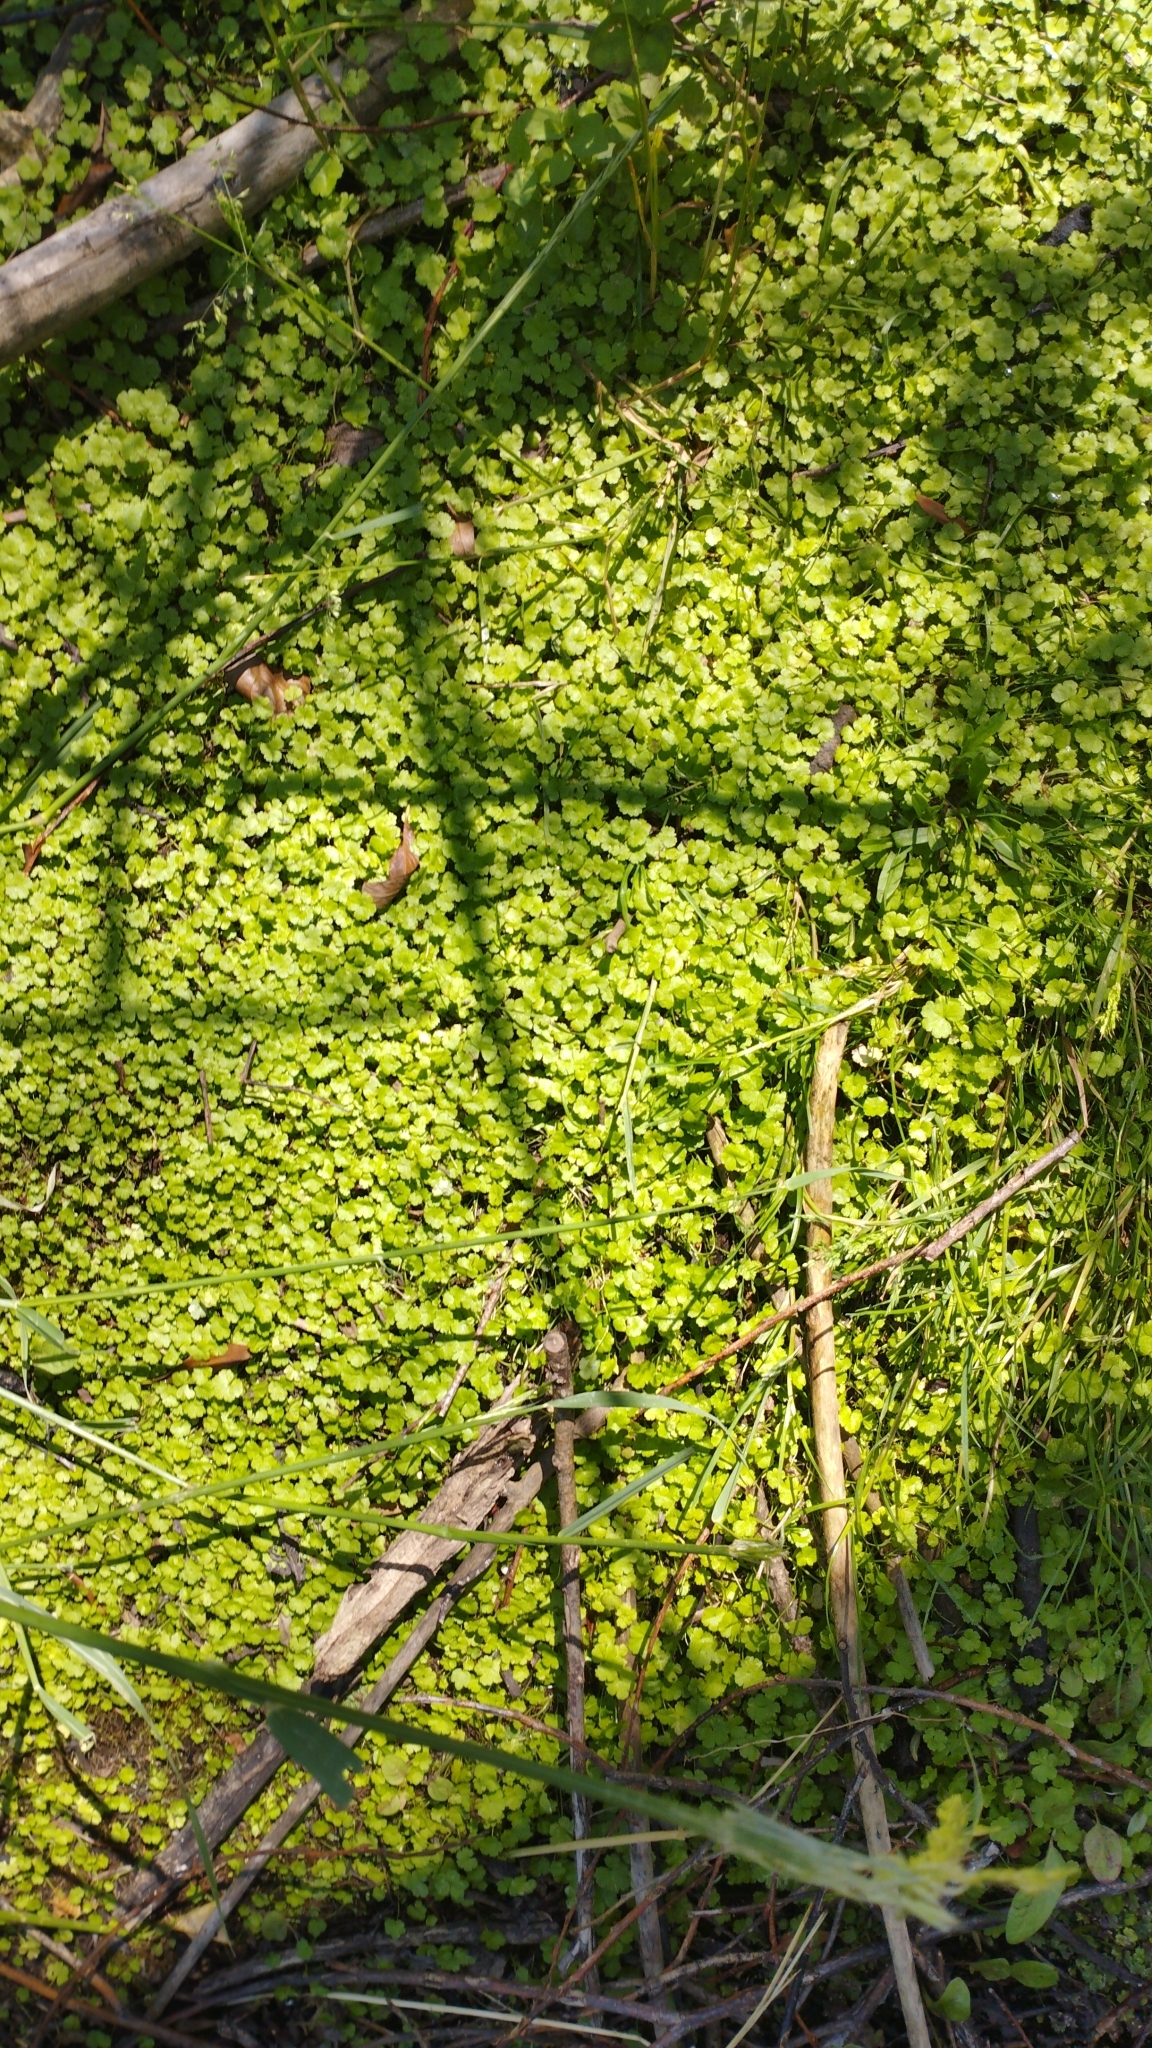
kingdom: Plantae
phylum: Tracheophyta
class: Magnoliopsida
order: Apiales
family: Araliaceae
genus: Hydrocotyle
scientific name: Hydrocotyle heteromeria
